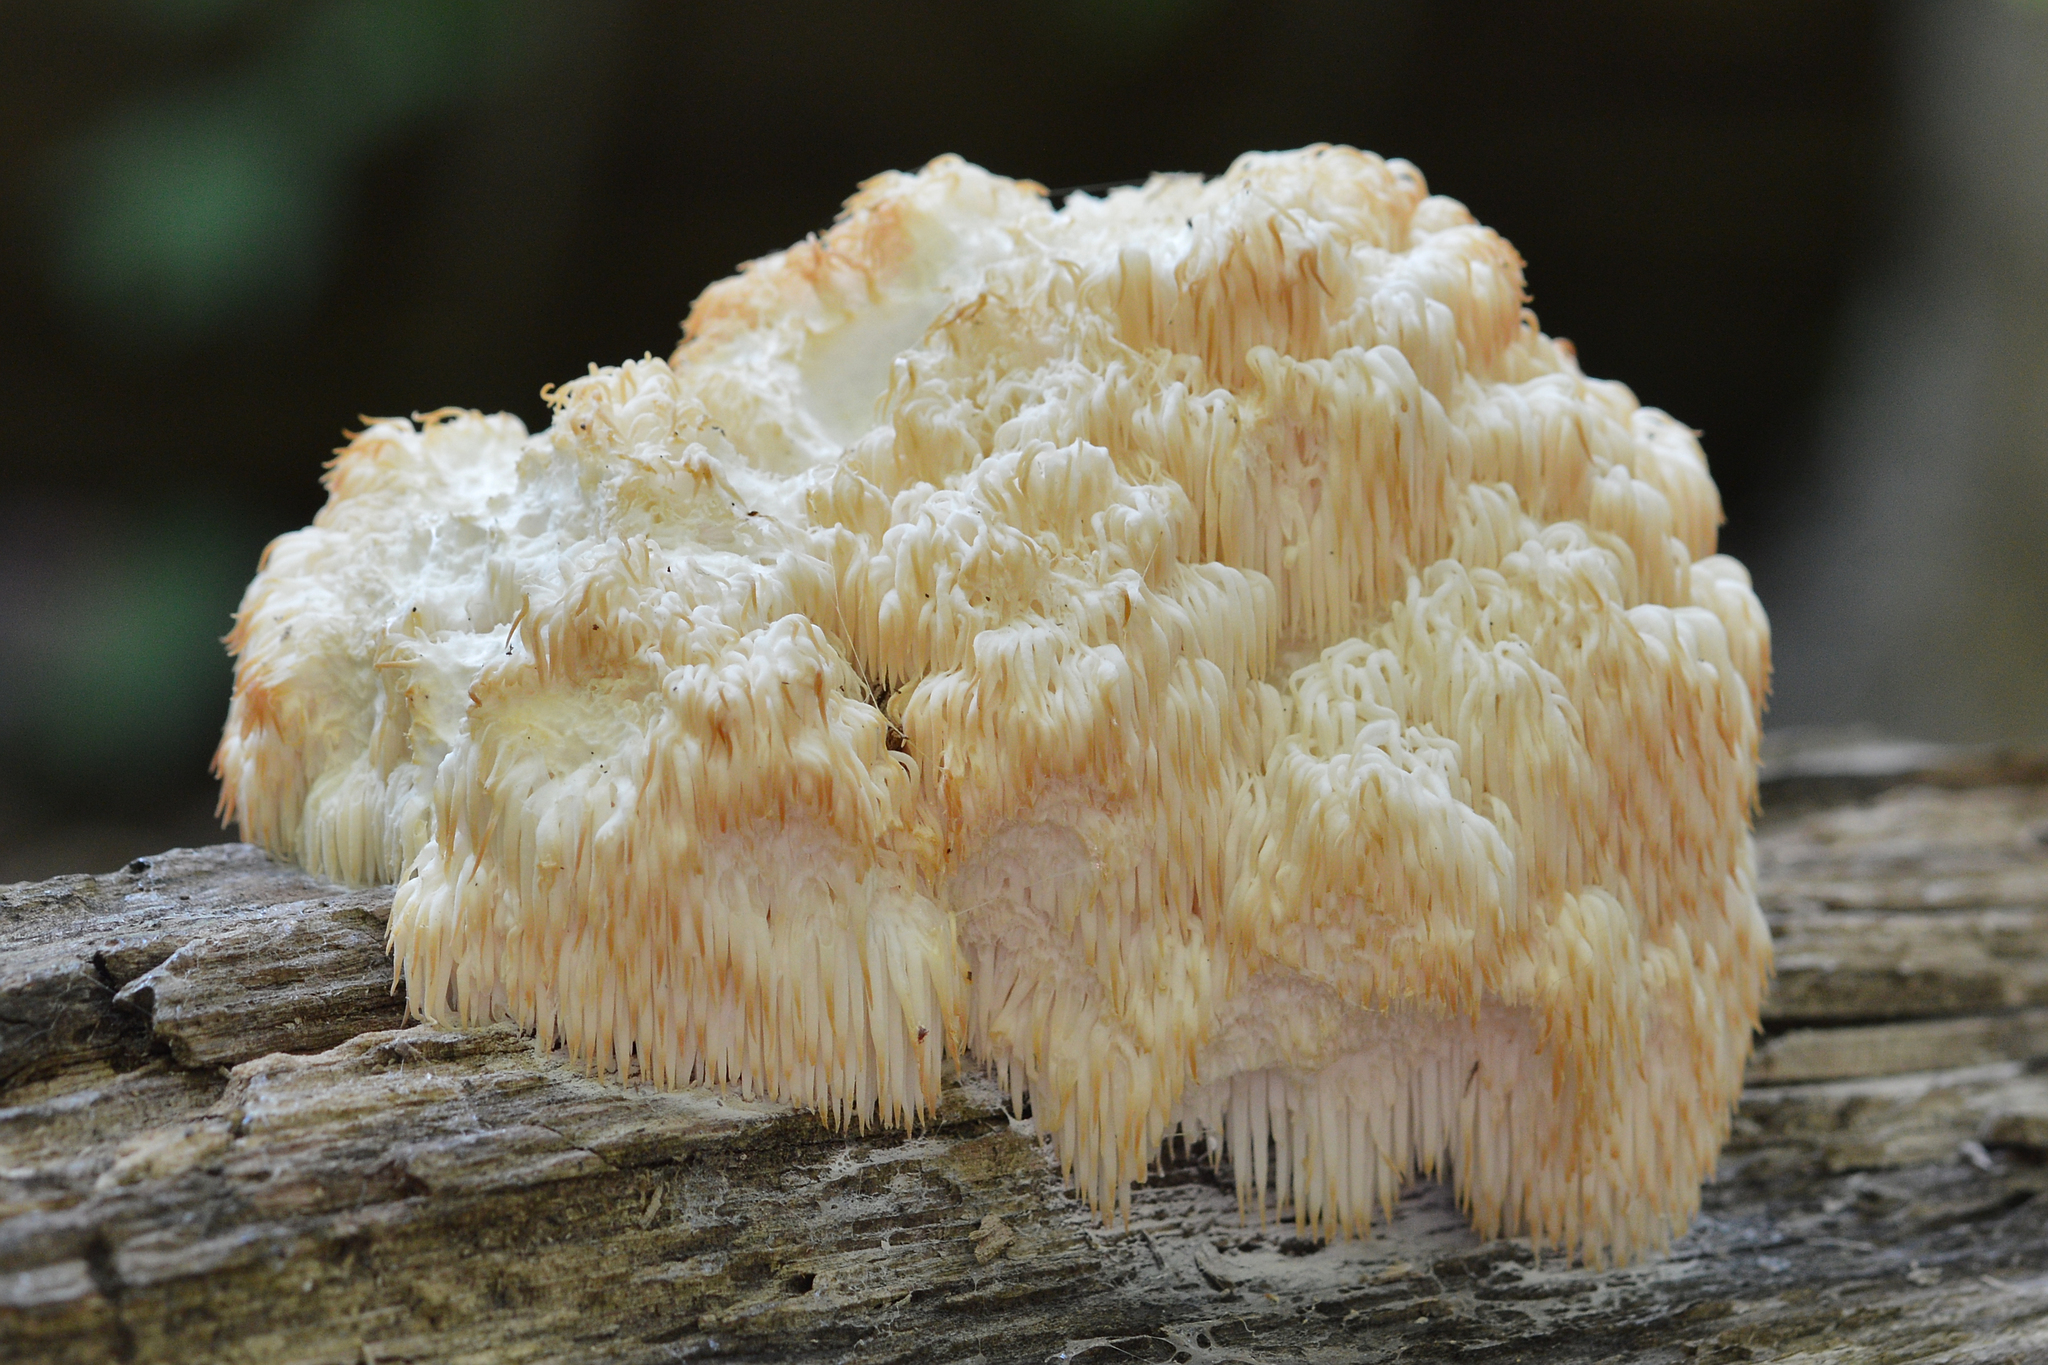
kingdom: Fungi
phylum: Basidiomycota
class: Agaricomycetes
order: Russulales
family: Hericiaceae
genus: Hericium
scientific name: Hericium americanum
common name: Bear's head tooth
